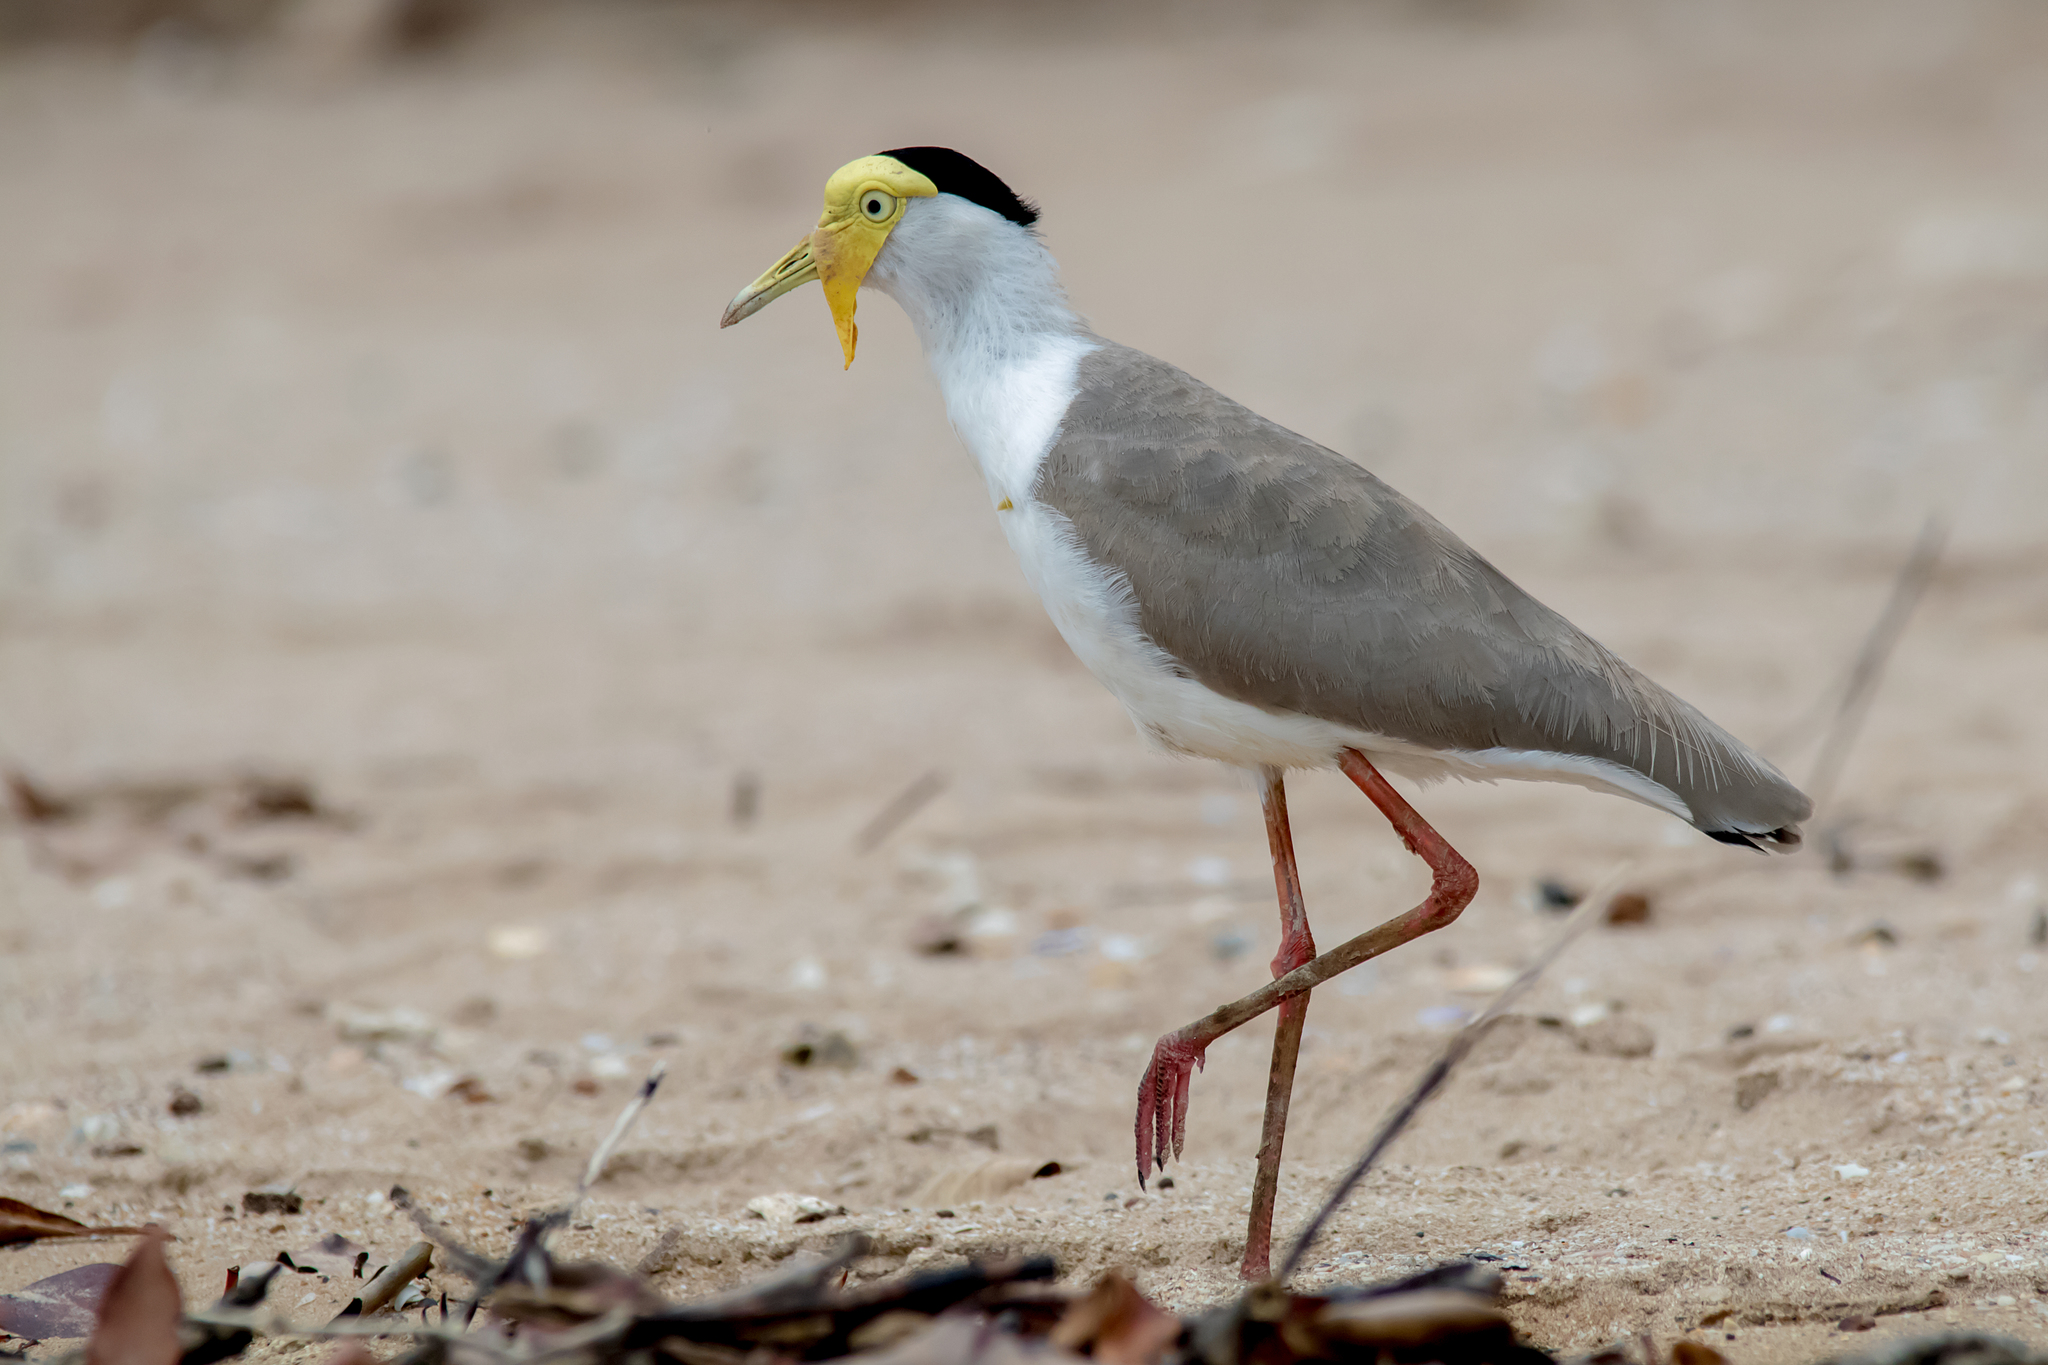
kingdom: Animalia
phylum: Chordata
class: Aves
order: Charadriiformes
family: Charadriidae
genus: Vanellus
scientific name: Vanellus miles
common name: Masked lapwing
